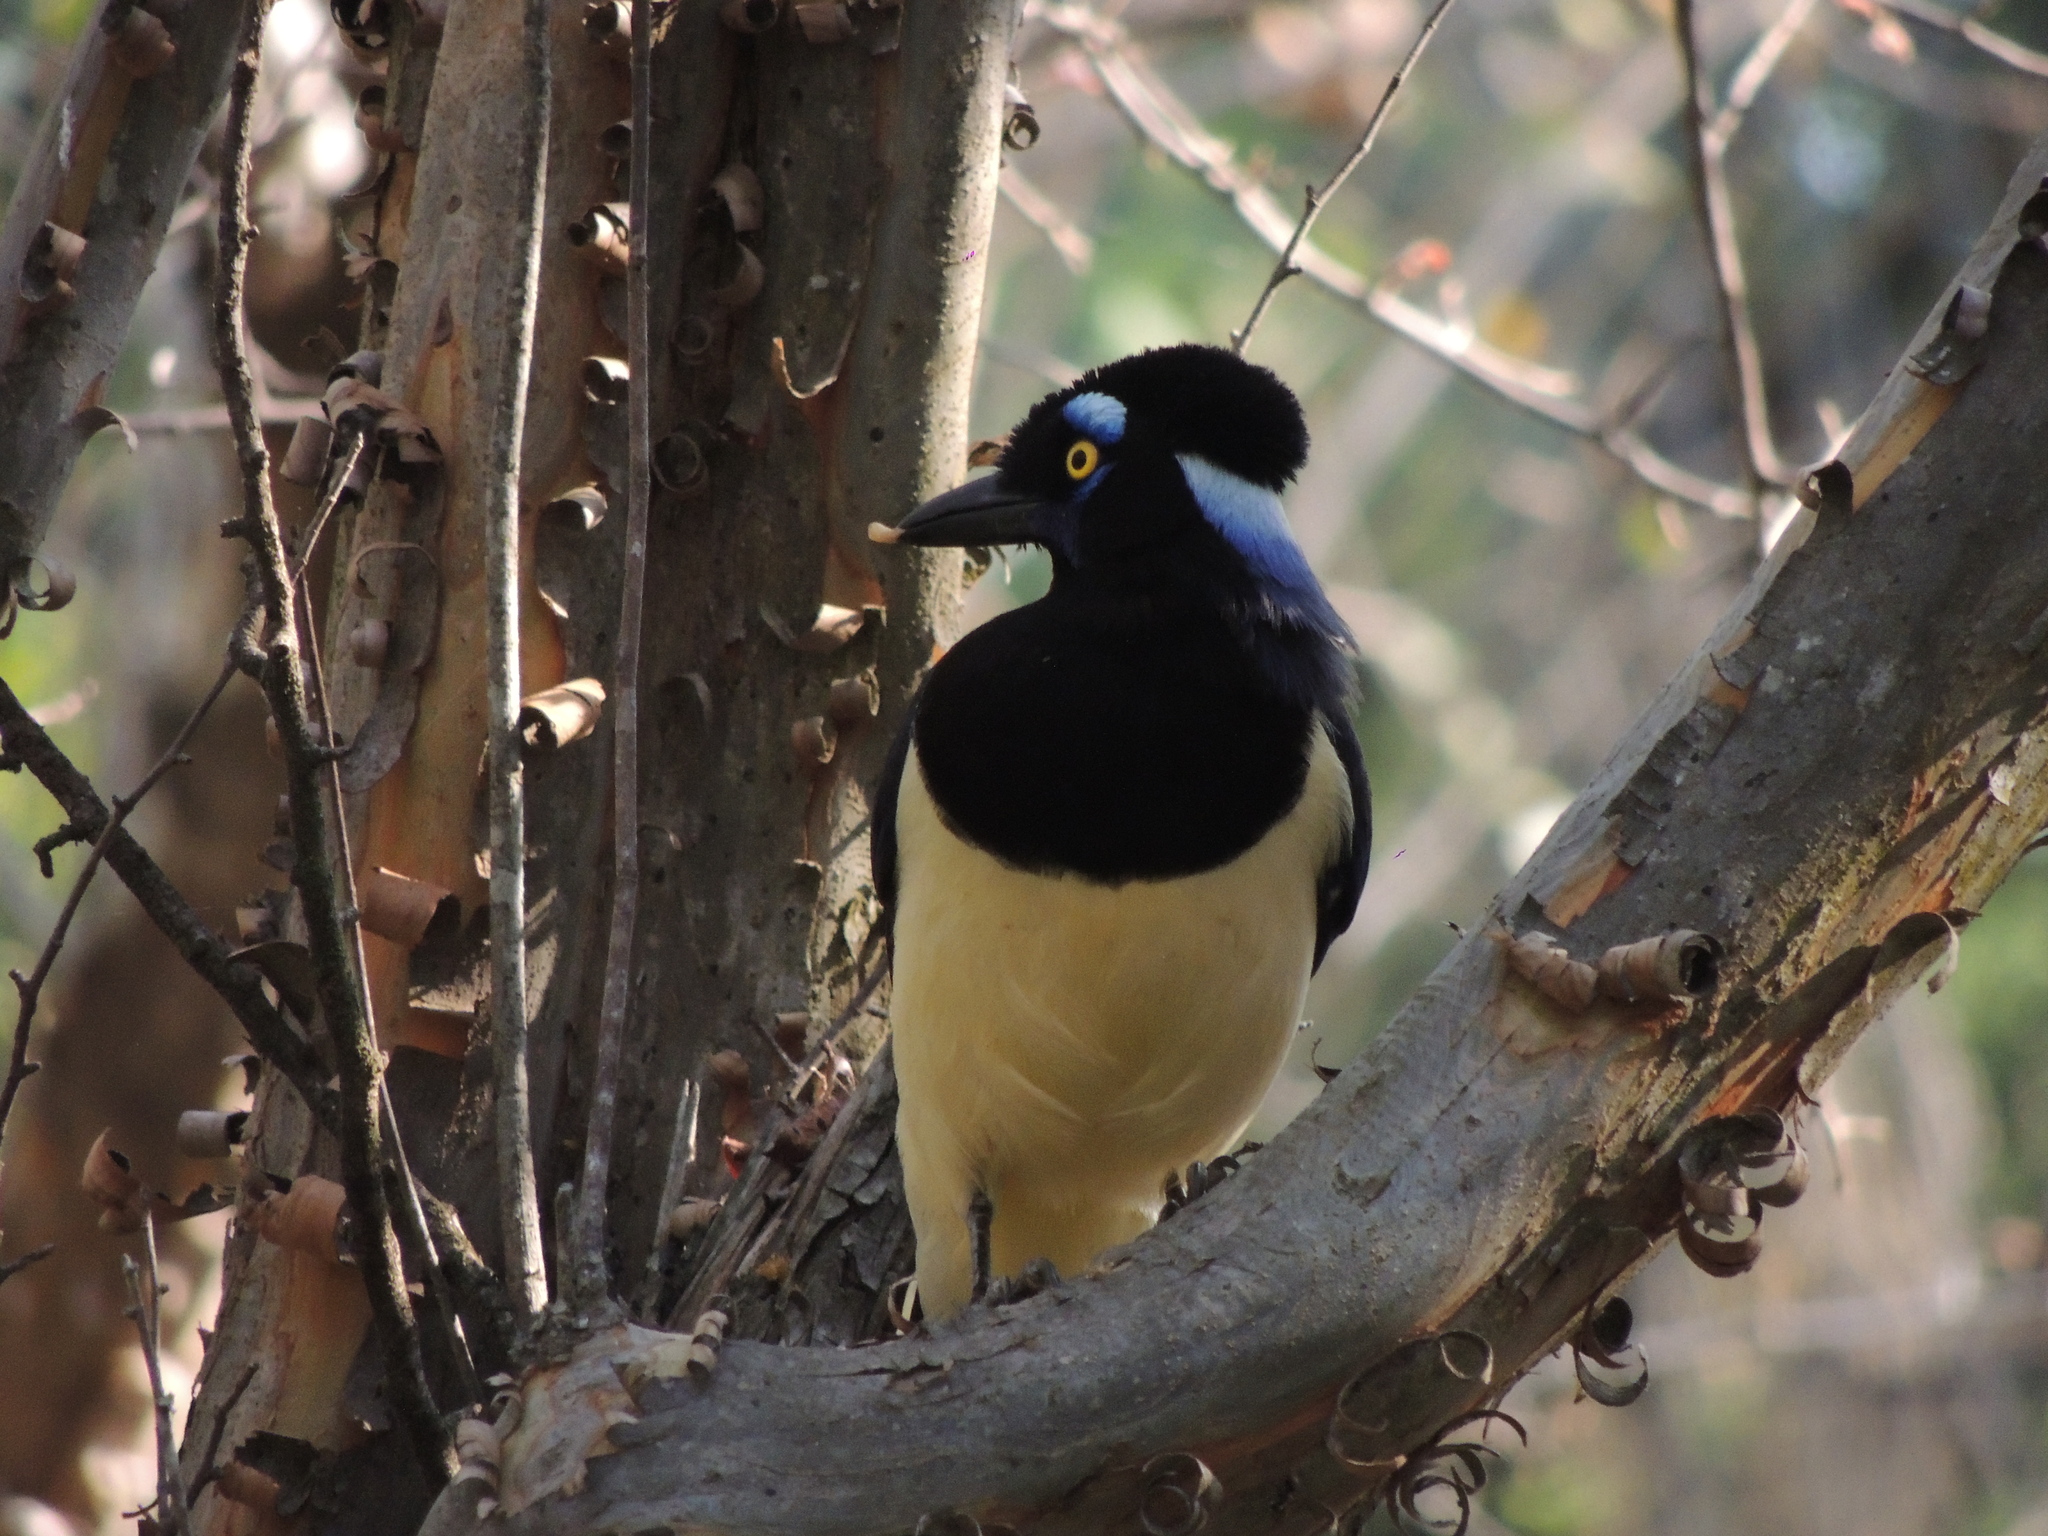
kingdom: Animalia
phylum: Chordata
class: Aves
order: Passeriformes
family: Corvidae
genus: Cyanocorax
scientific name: Cyanocorax chrysops
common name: Plush-crested jay
